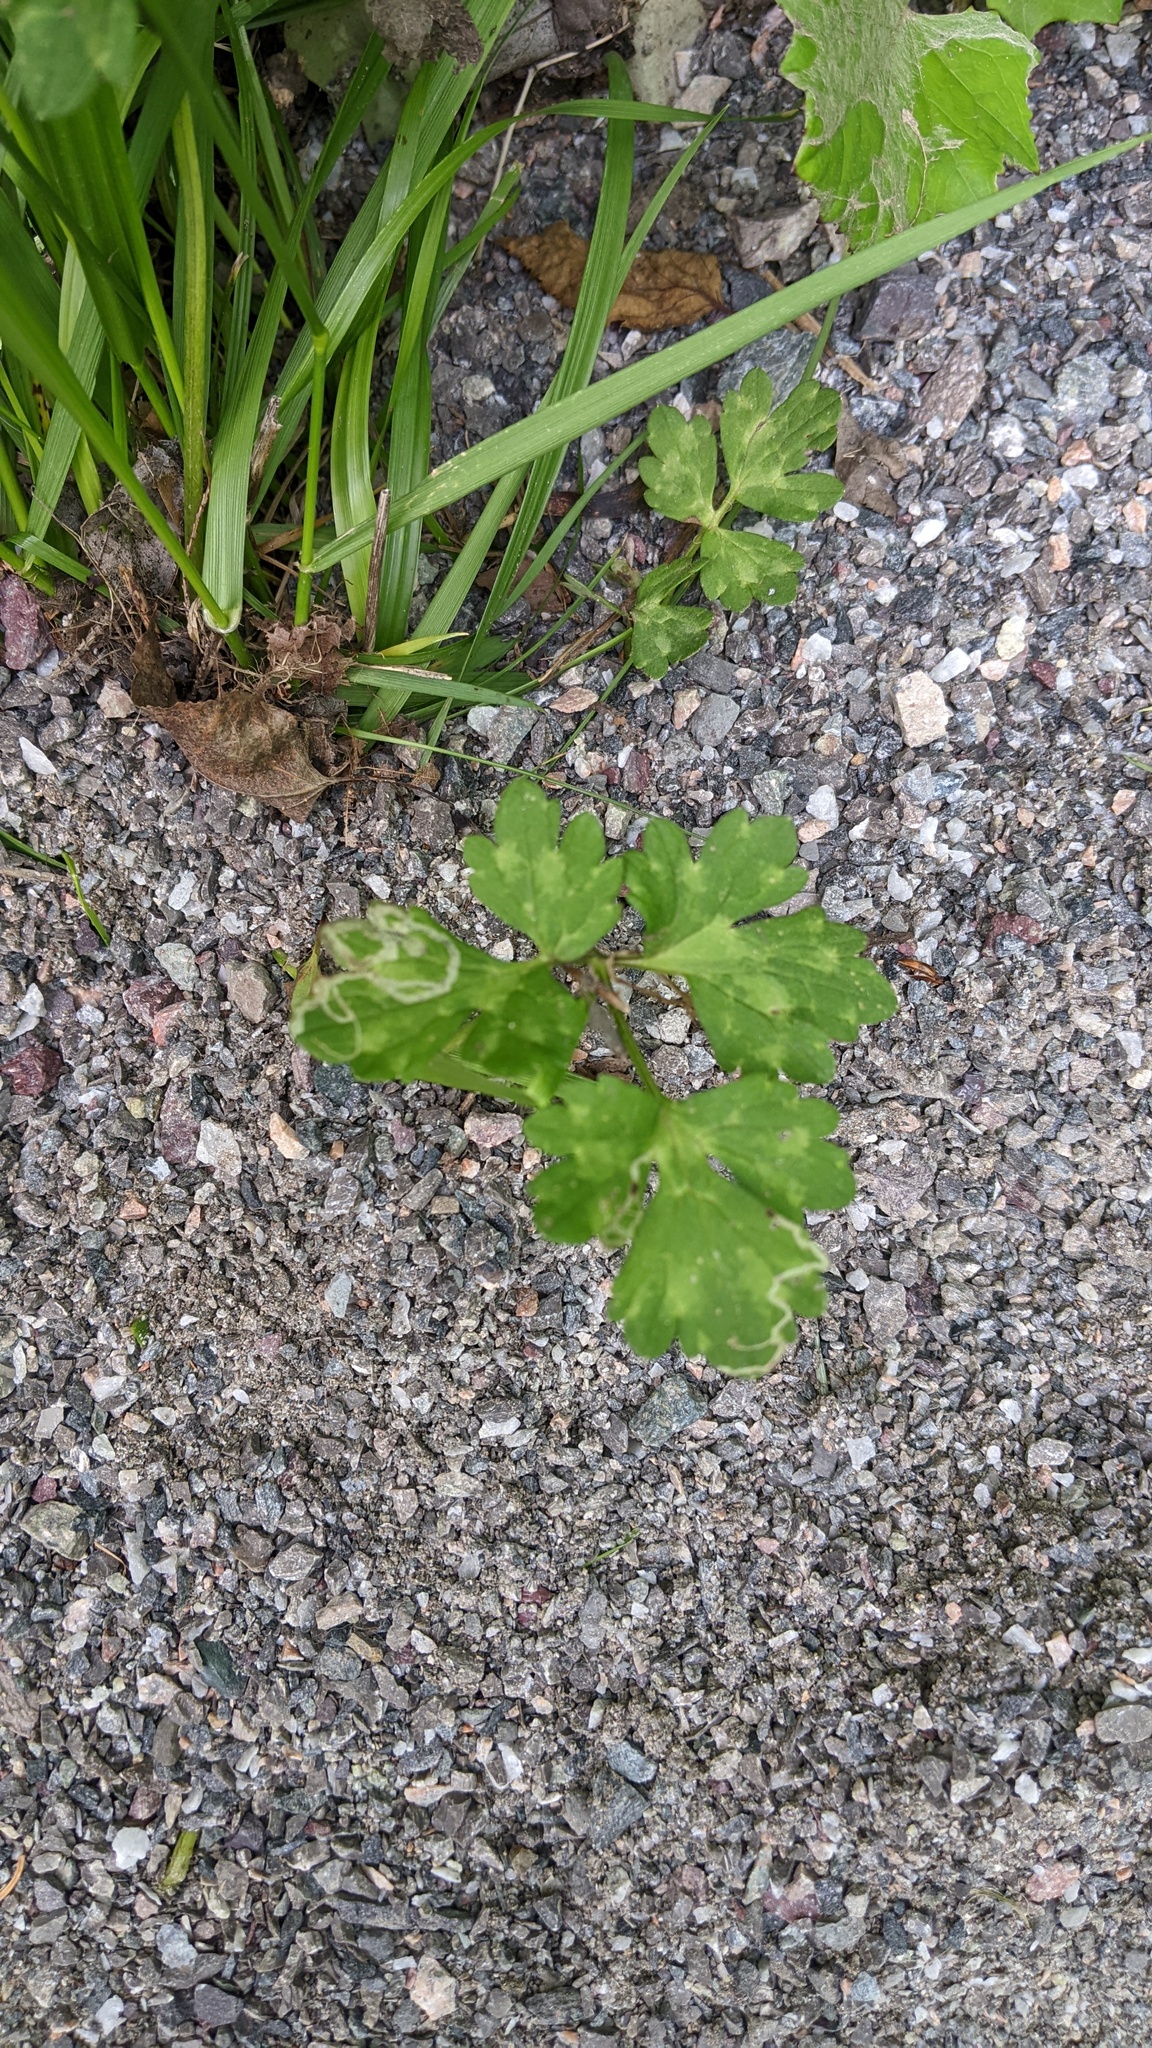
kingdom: Animalia
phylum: Arthropoda
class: Insecta
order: Diptera
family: Agromyzidae
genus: Phytomyza
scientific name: Phytomyza ranunculi
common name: Leaf-miner fly
